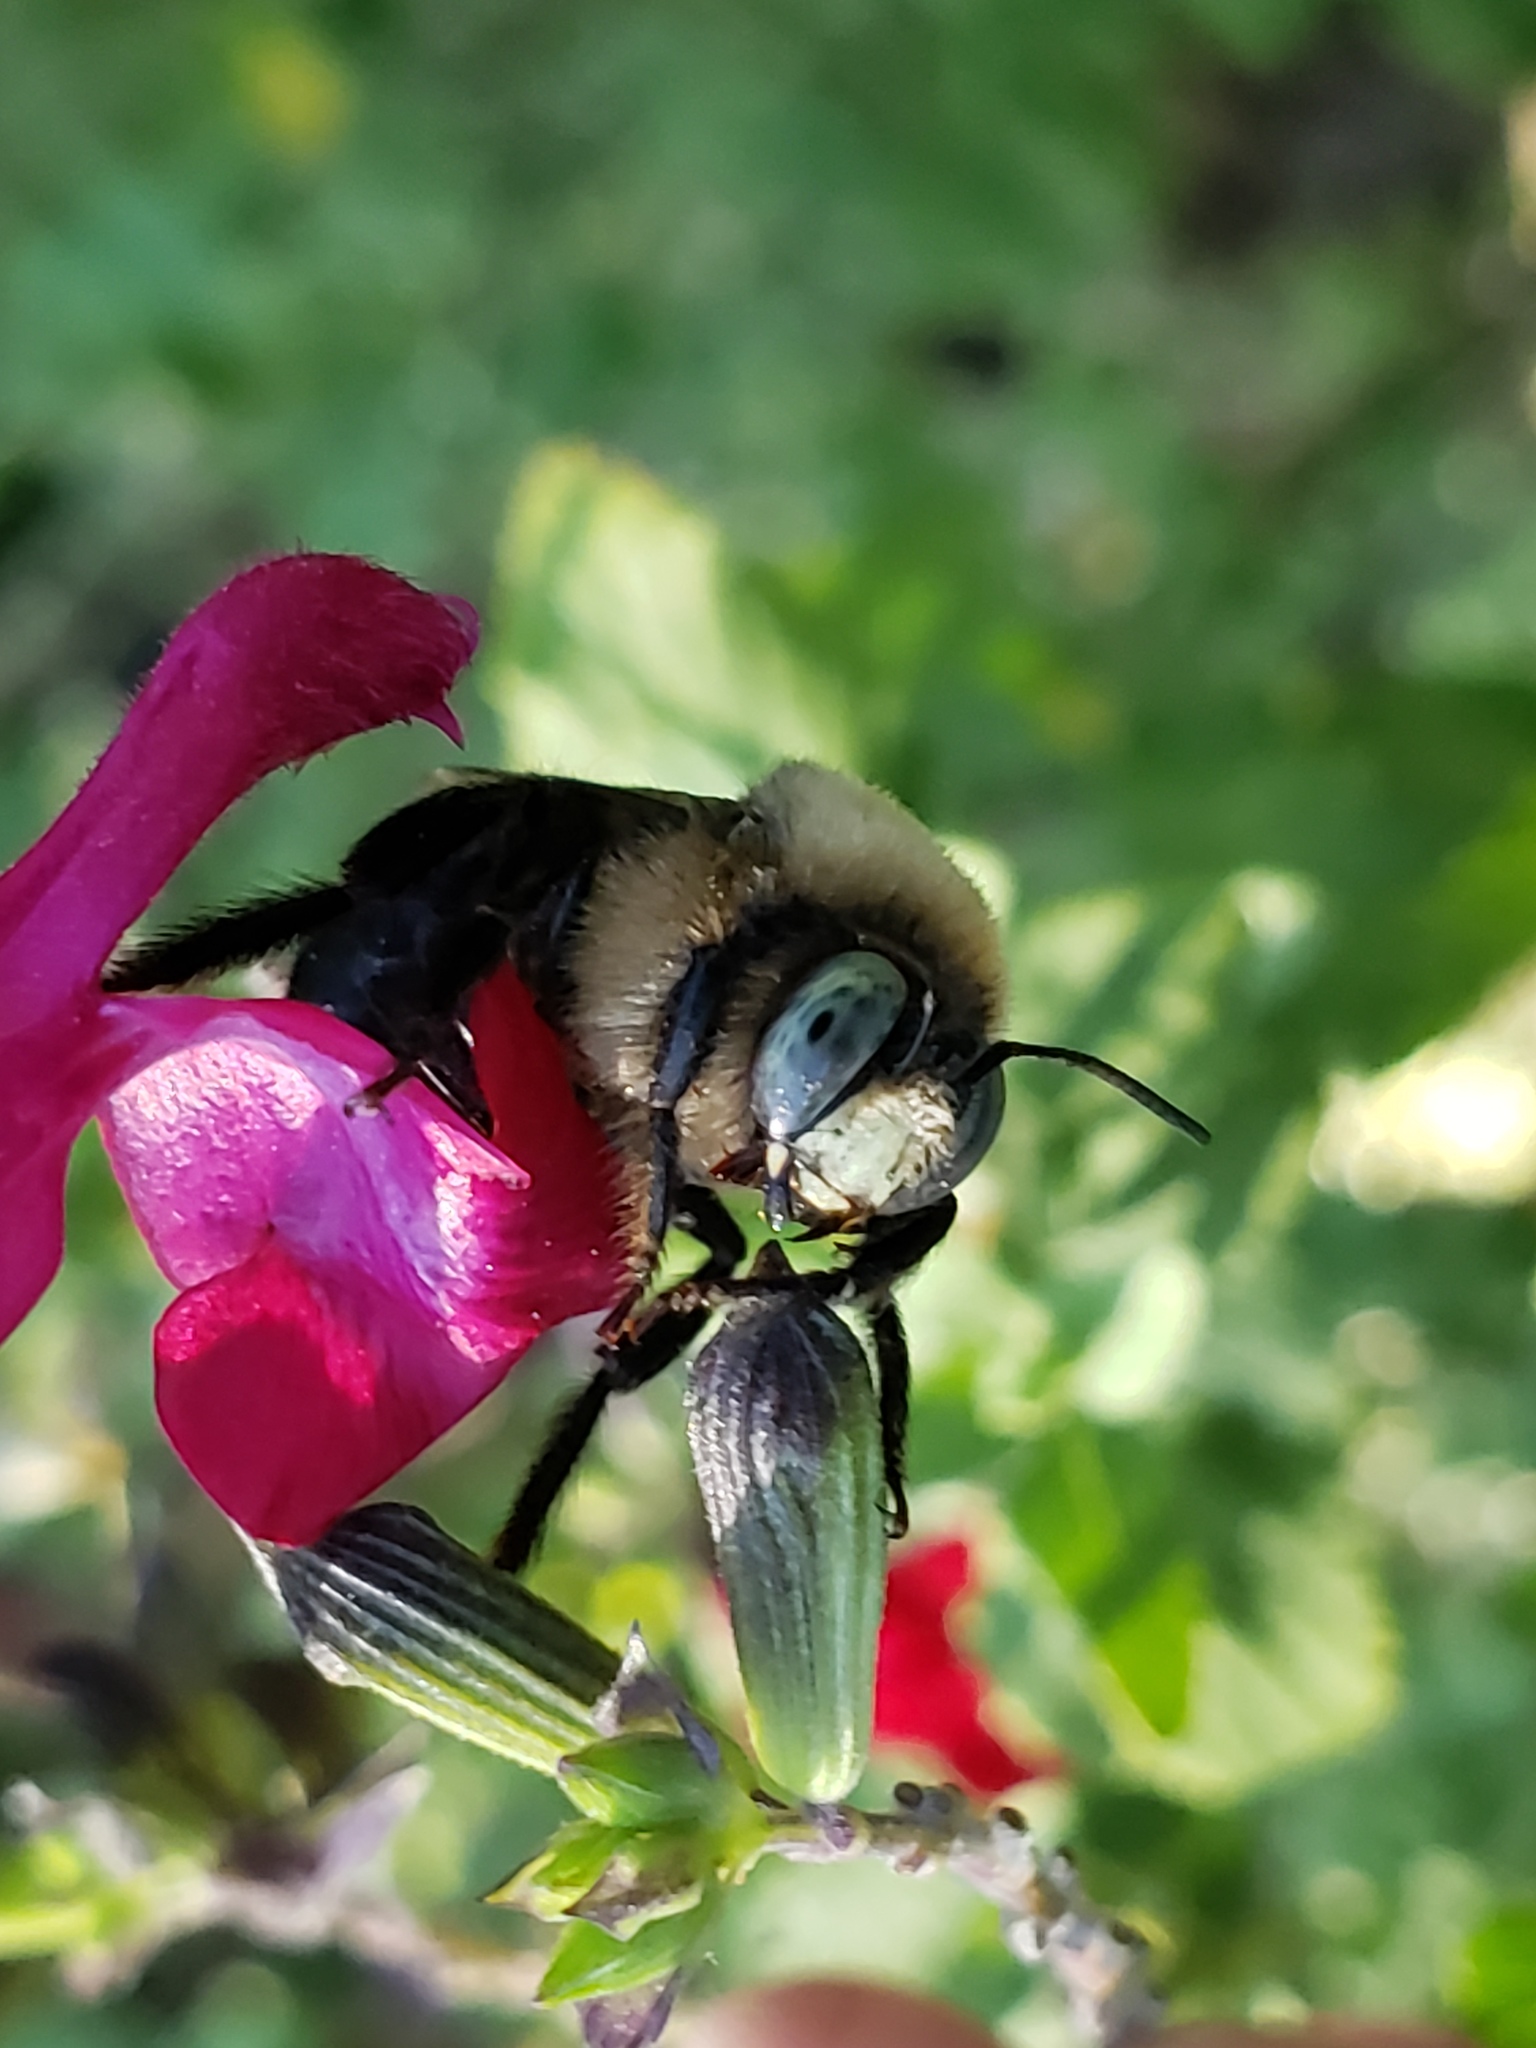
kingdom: Animalia
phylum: Arthropoda
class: Insecta
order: Hymenoptera
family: Apidae
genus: Xylocopa
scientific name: Xylocopa tabaniformis
